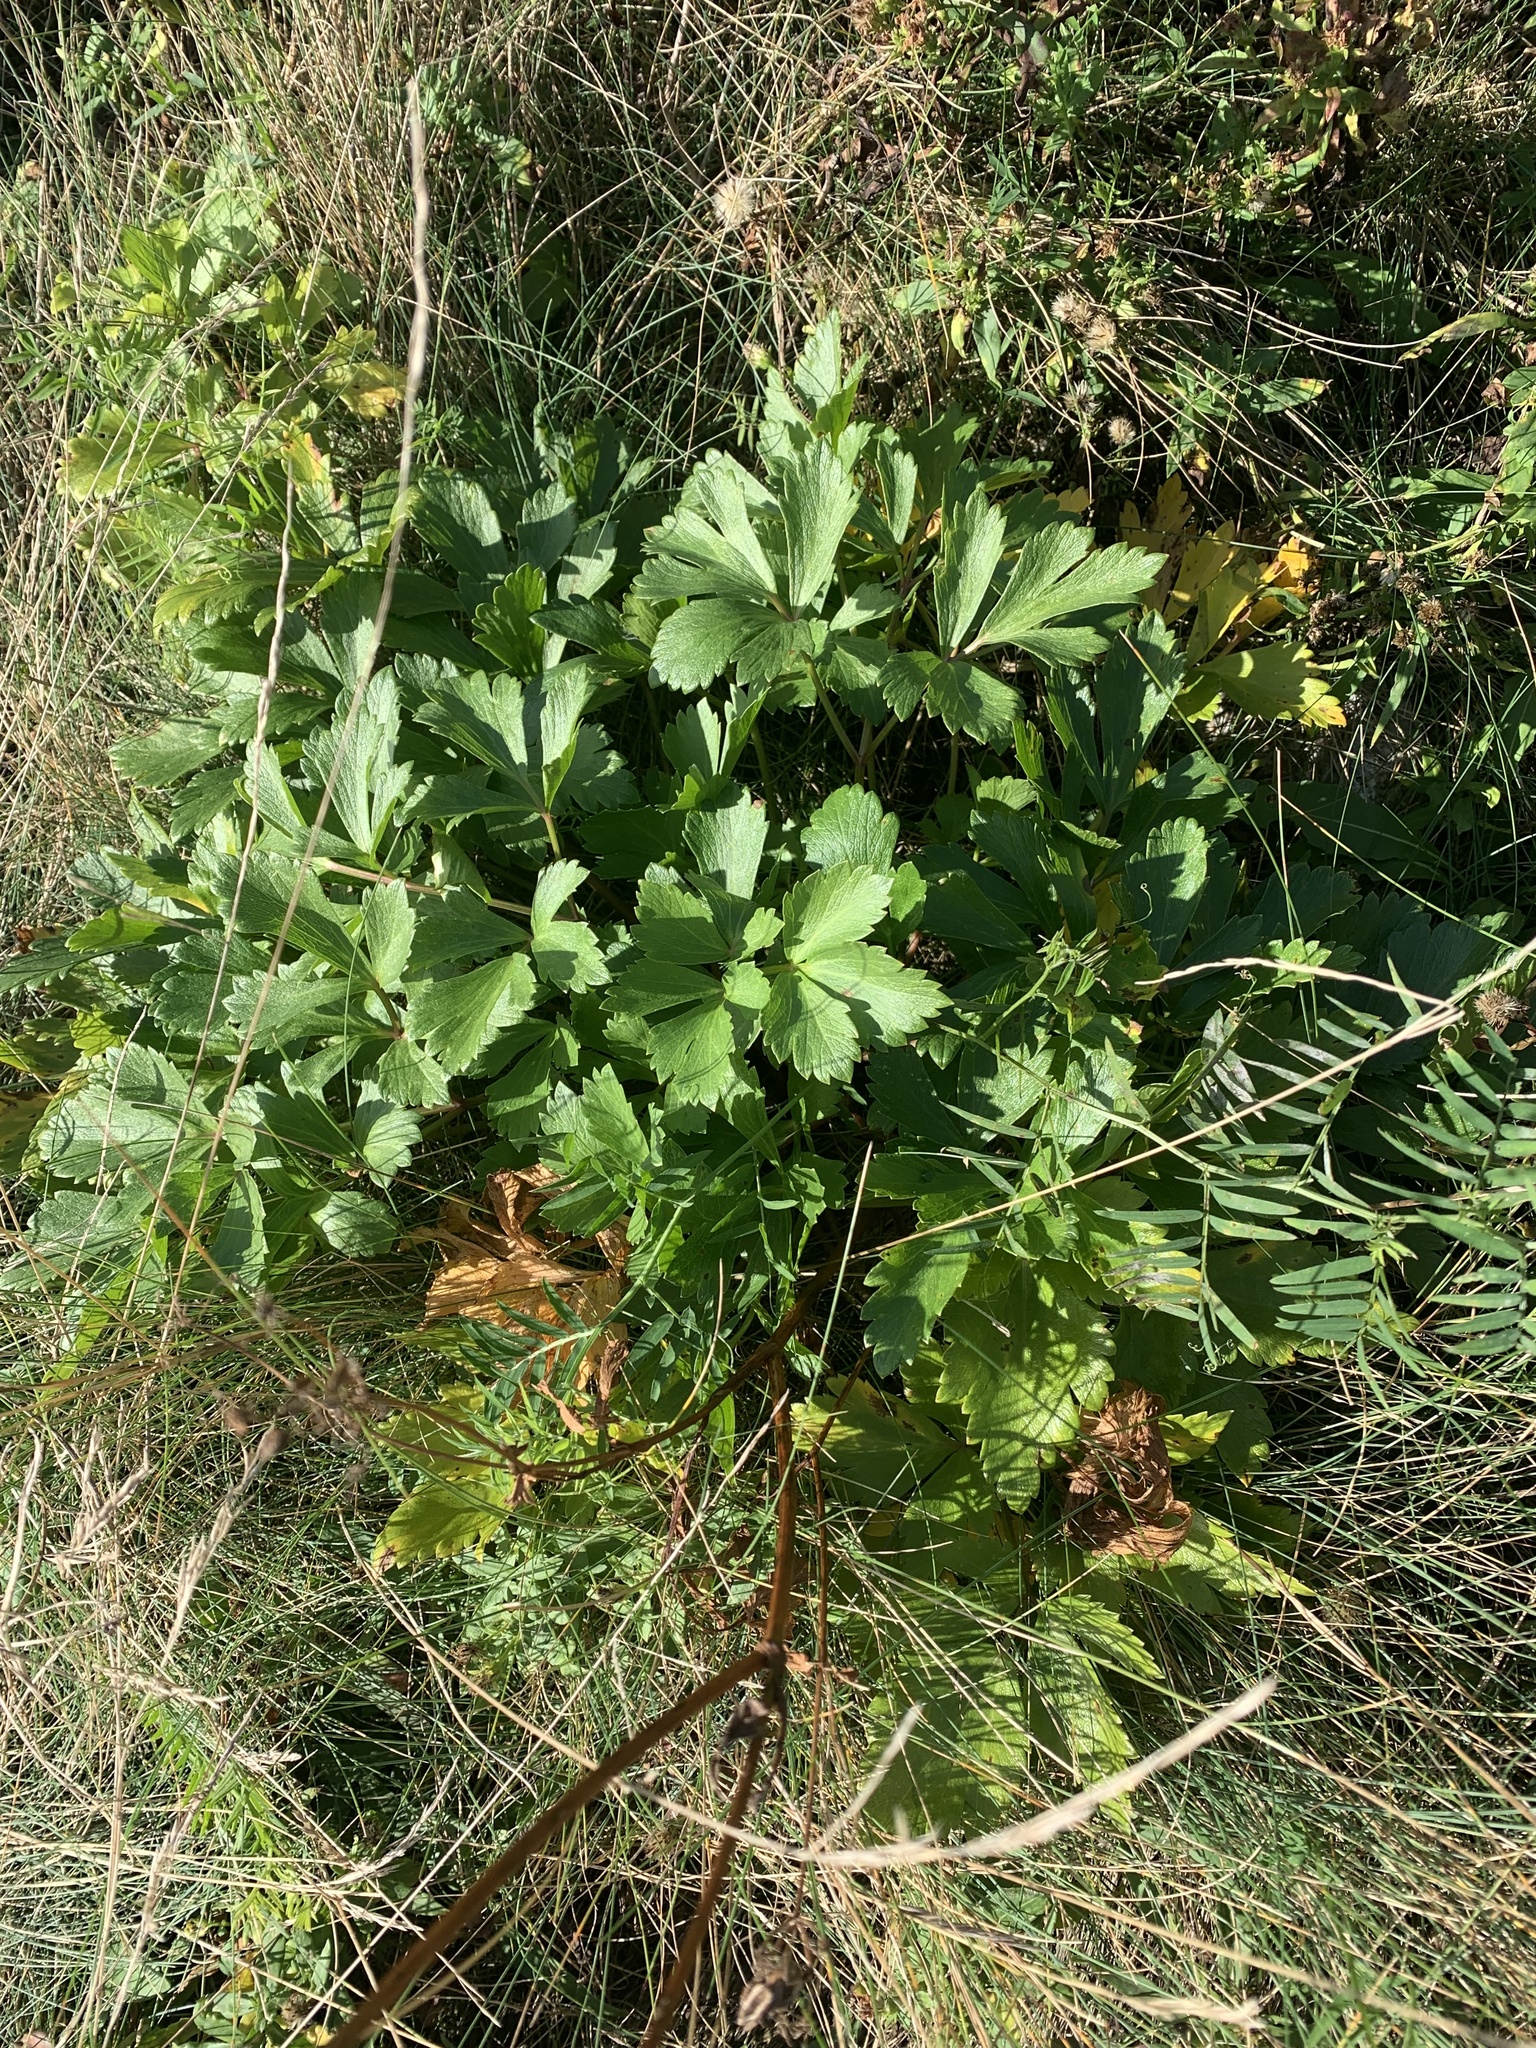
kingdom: Plantae
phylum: Tracheophyta
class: Magnoliopsida
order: Apiales
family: Apiaceae
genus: Ligusticum
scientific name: Ligusticum scothicum
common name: Beach lovage
